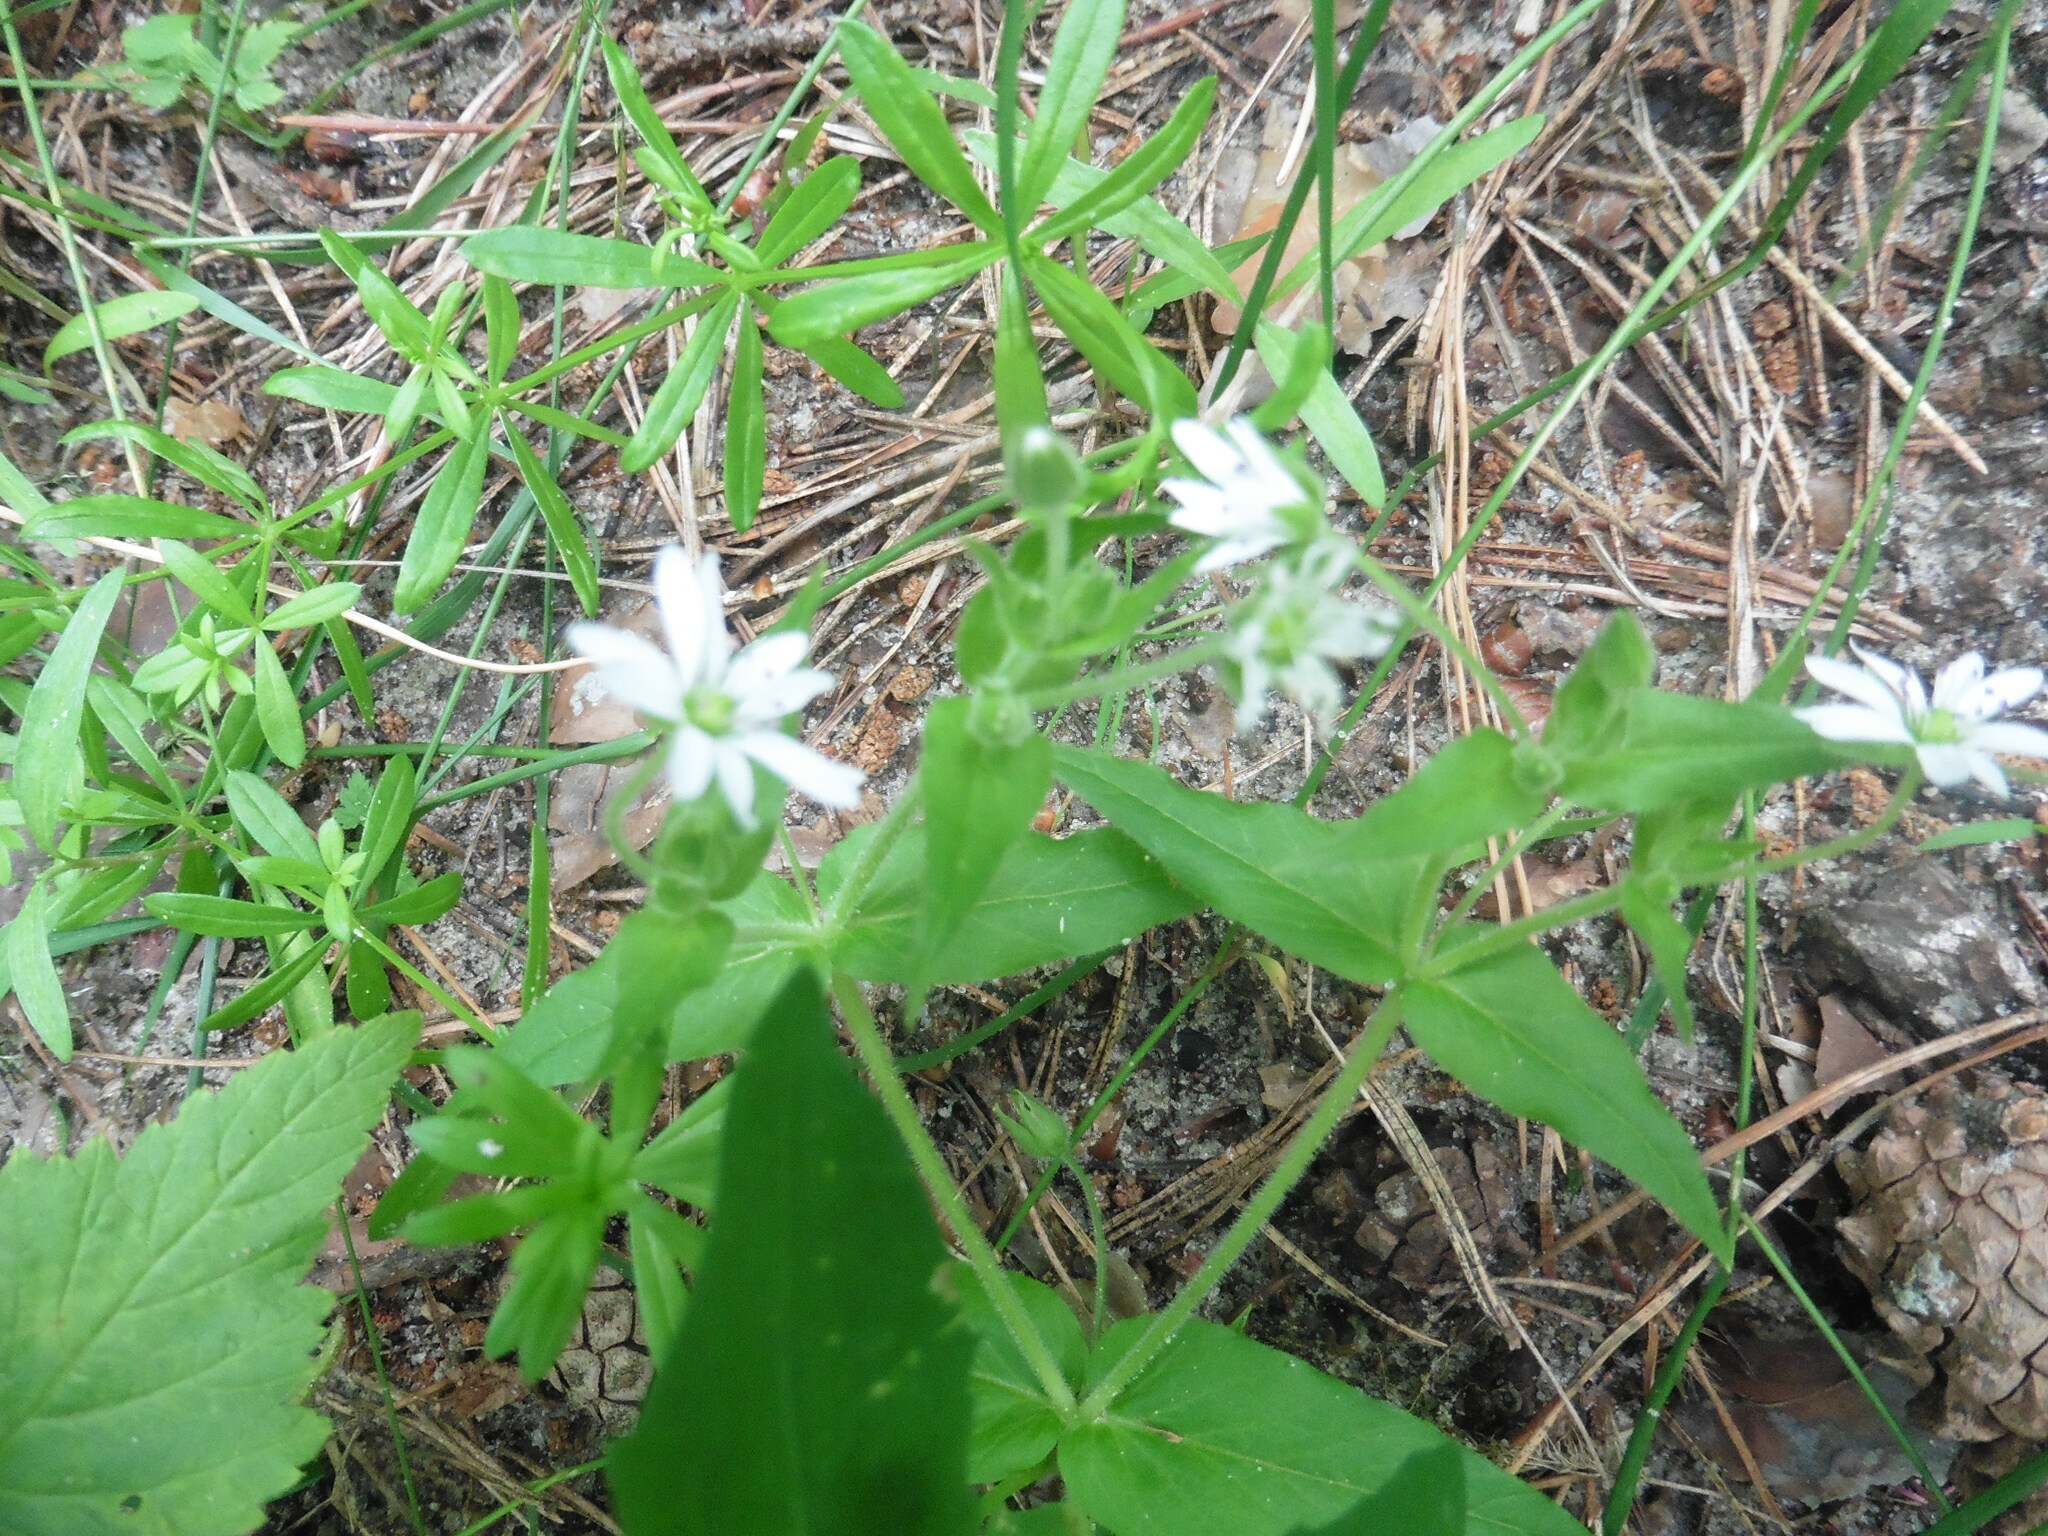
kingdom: Plantae
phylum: Tracheophyta
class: Magnoliopsida
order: Caryophyllales
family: Caryophyllaceae
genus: Stellaria
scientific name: Stellaria aquatica
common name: Water chickweed
